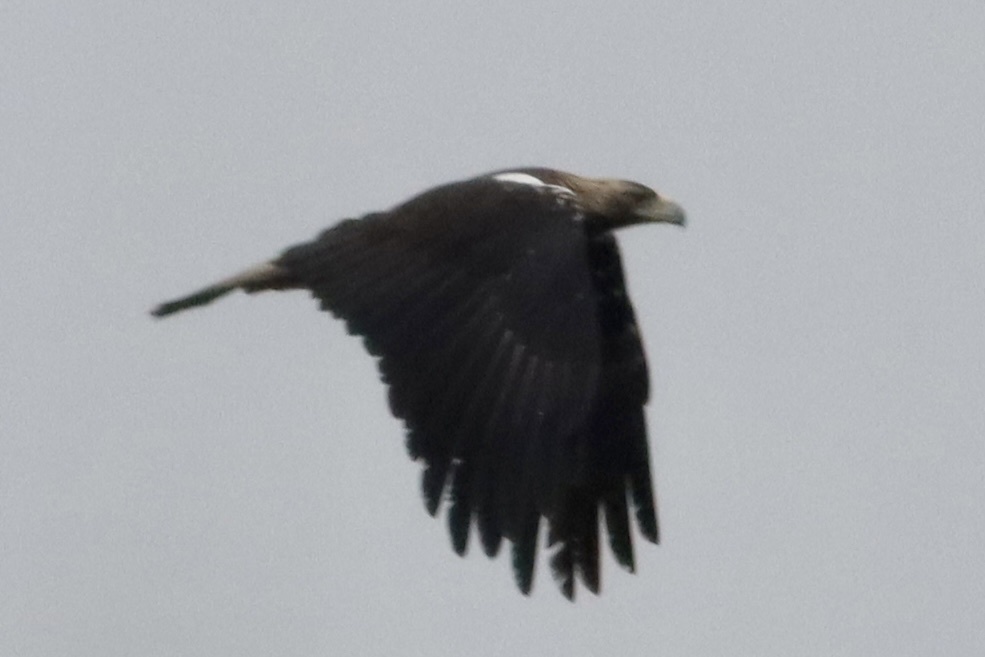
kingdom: Animalia
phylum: Chordata
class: Aves
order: Accipitriformes
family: Accipitridae
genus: Aquila
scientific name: Aquila adalberti
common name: Spanish imperial eagle
